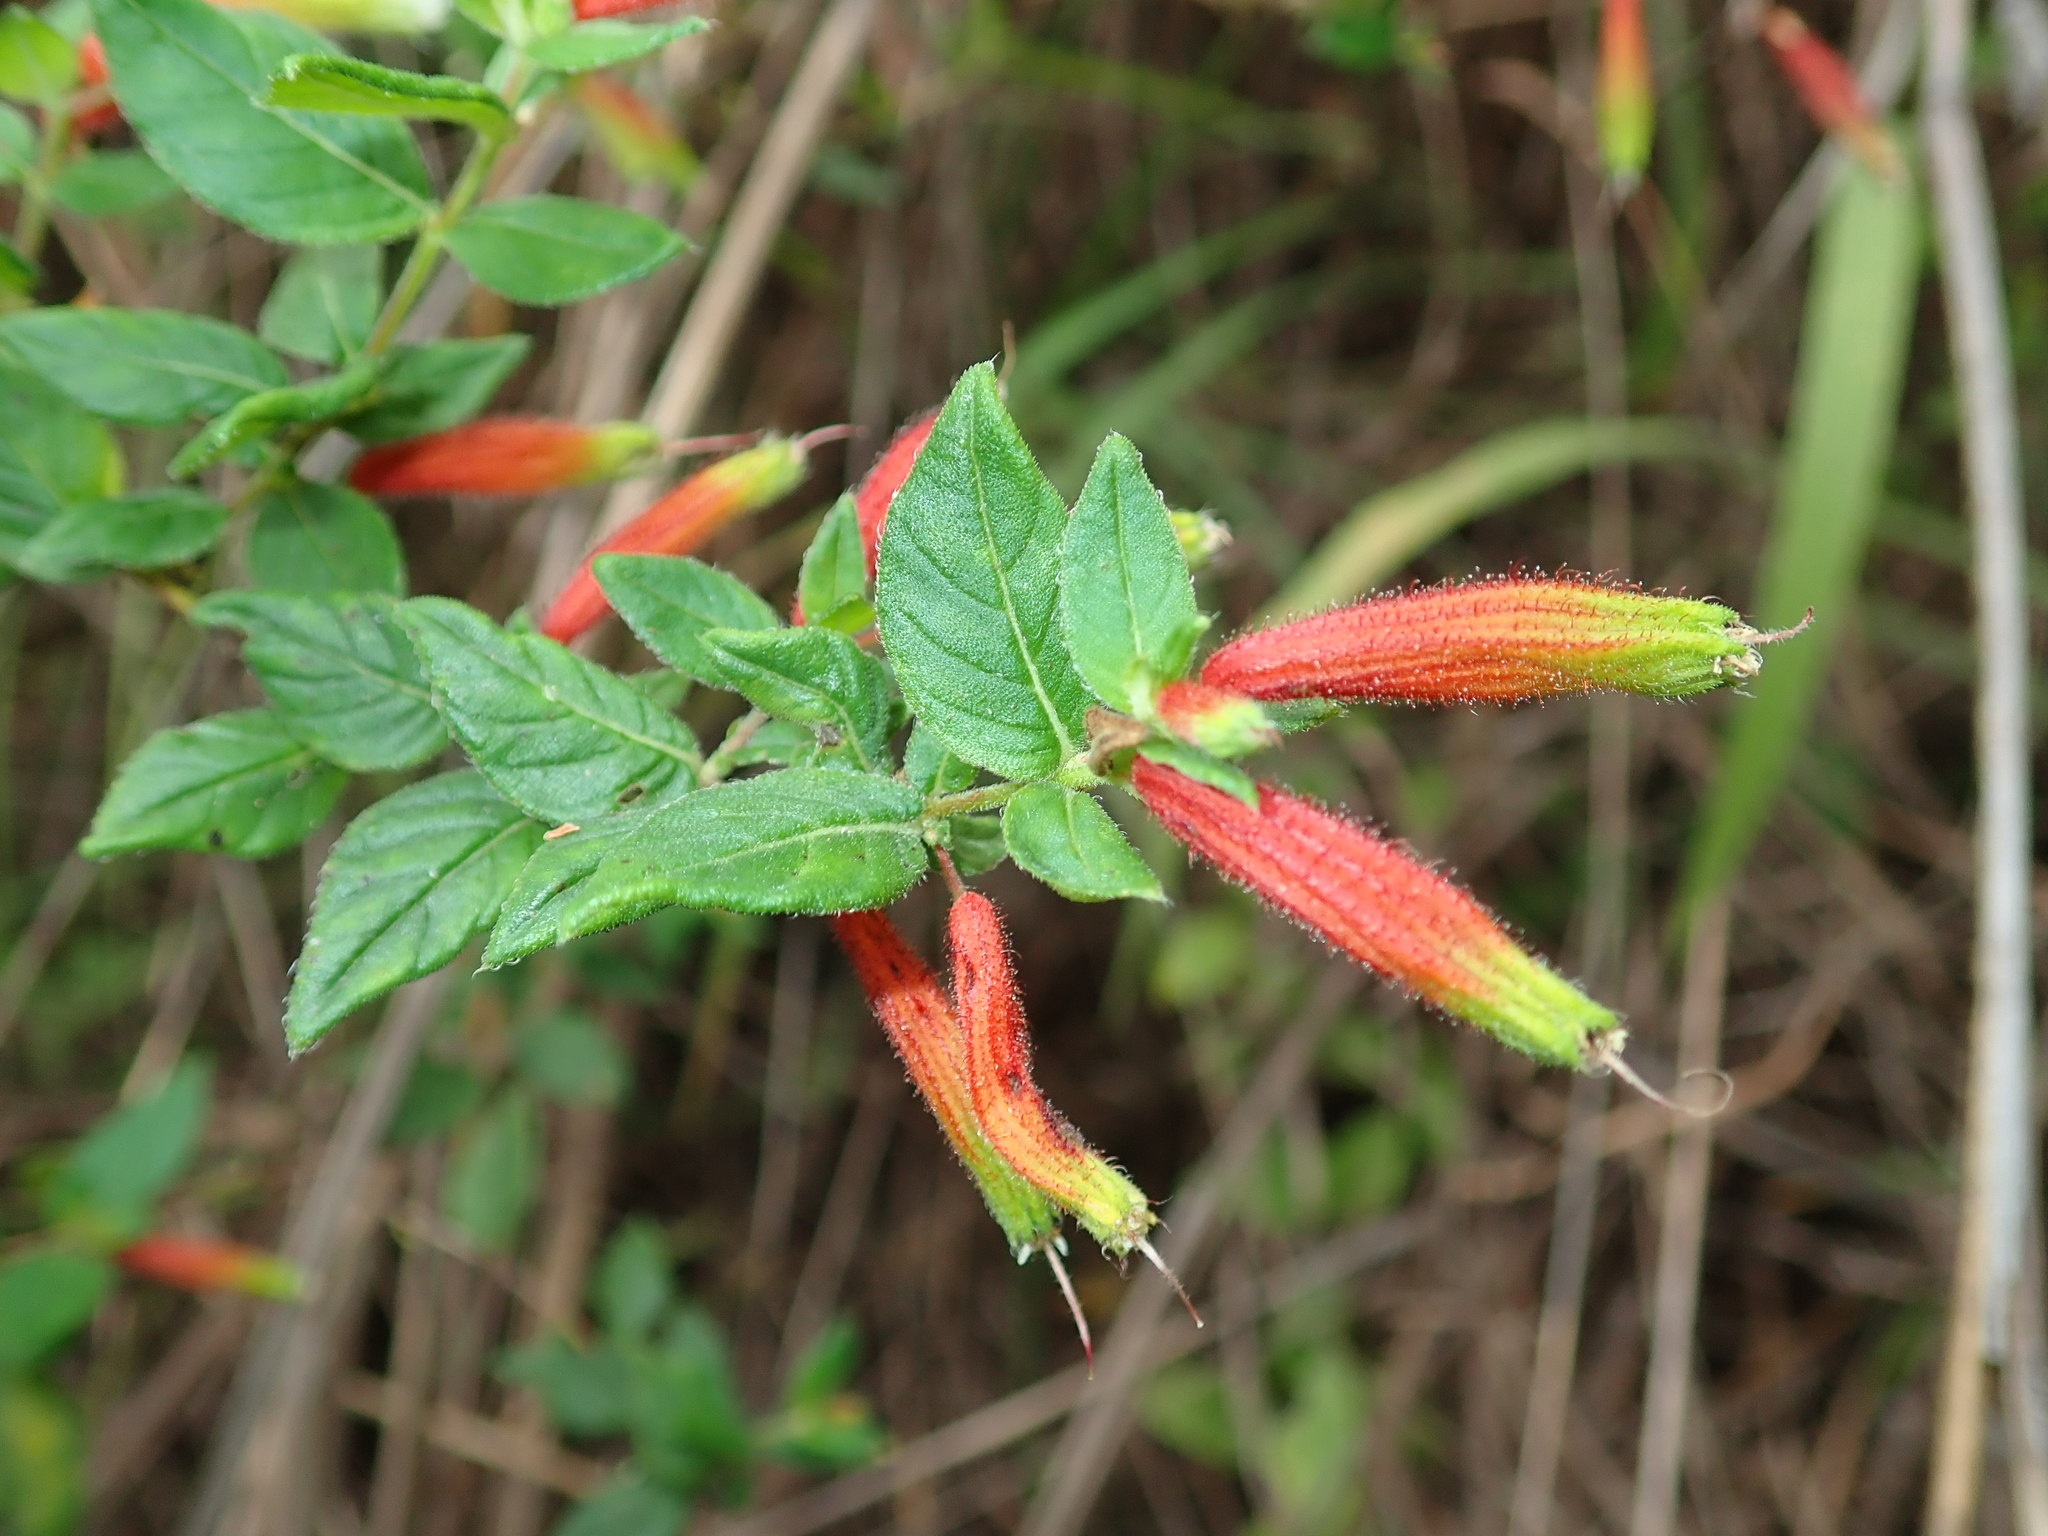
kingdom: Plantae
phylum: Tracheophyta
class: Magnoliopsida
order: Myrtales
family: Lythraceae
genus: Cuphea
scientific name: Cuphea gardneri
